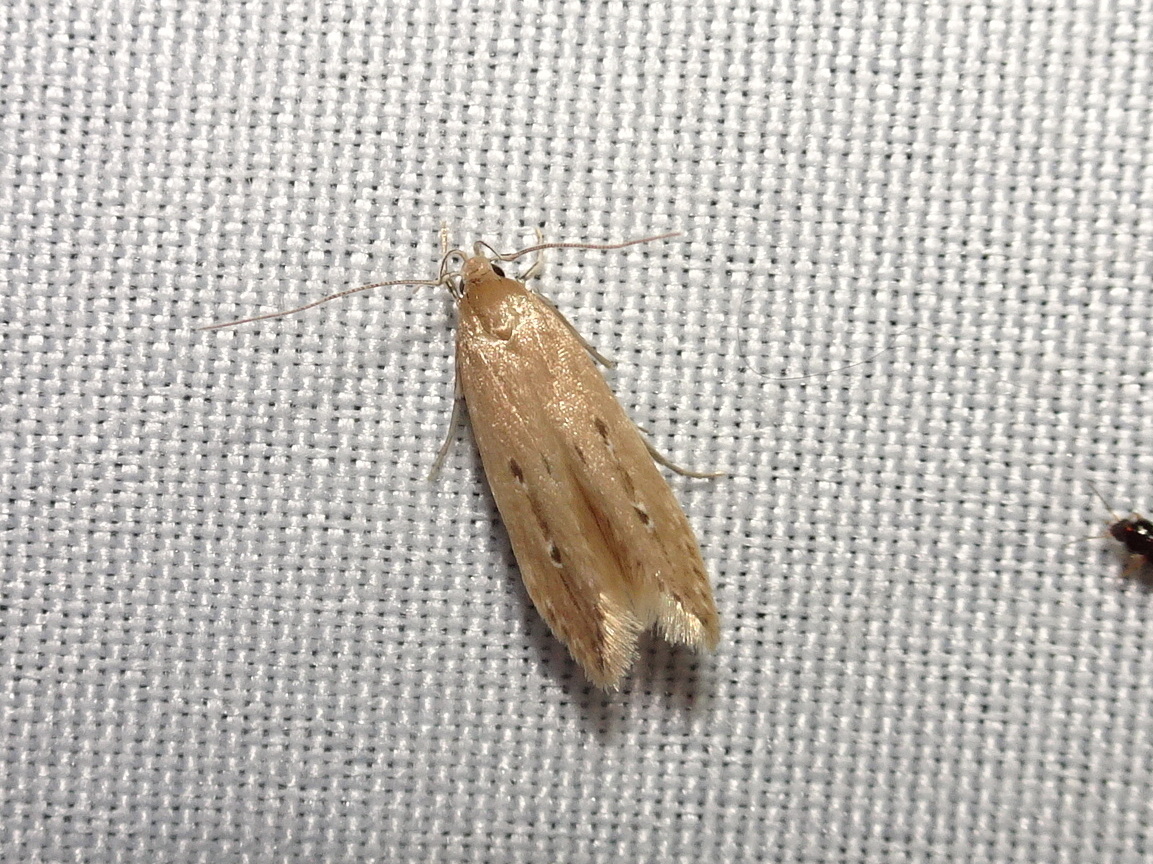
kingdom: Animalia
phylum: Arthropoda
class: Insecta
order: Lepidoptera
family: Cosmopterigidae
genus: Limnaecia
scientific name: Limnaecia phragmitella
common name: Bulrush cosmet
